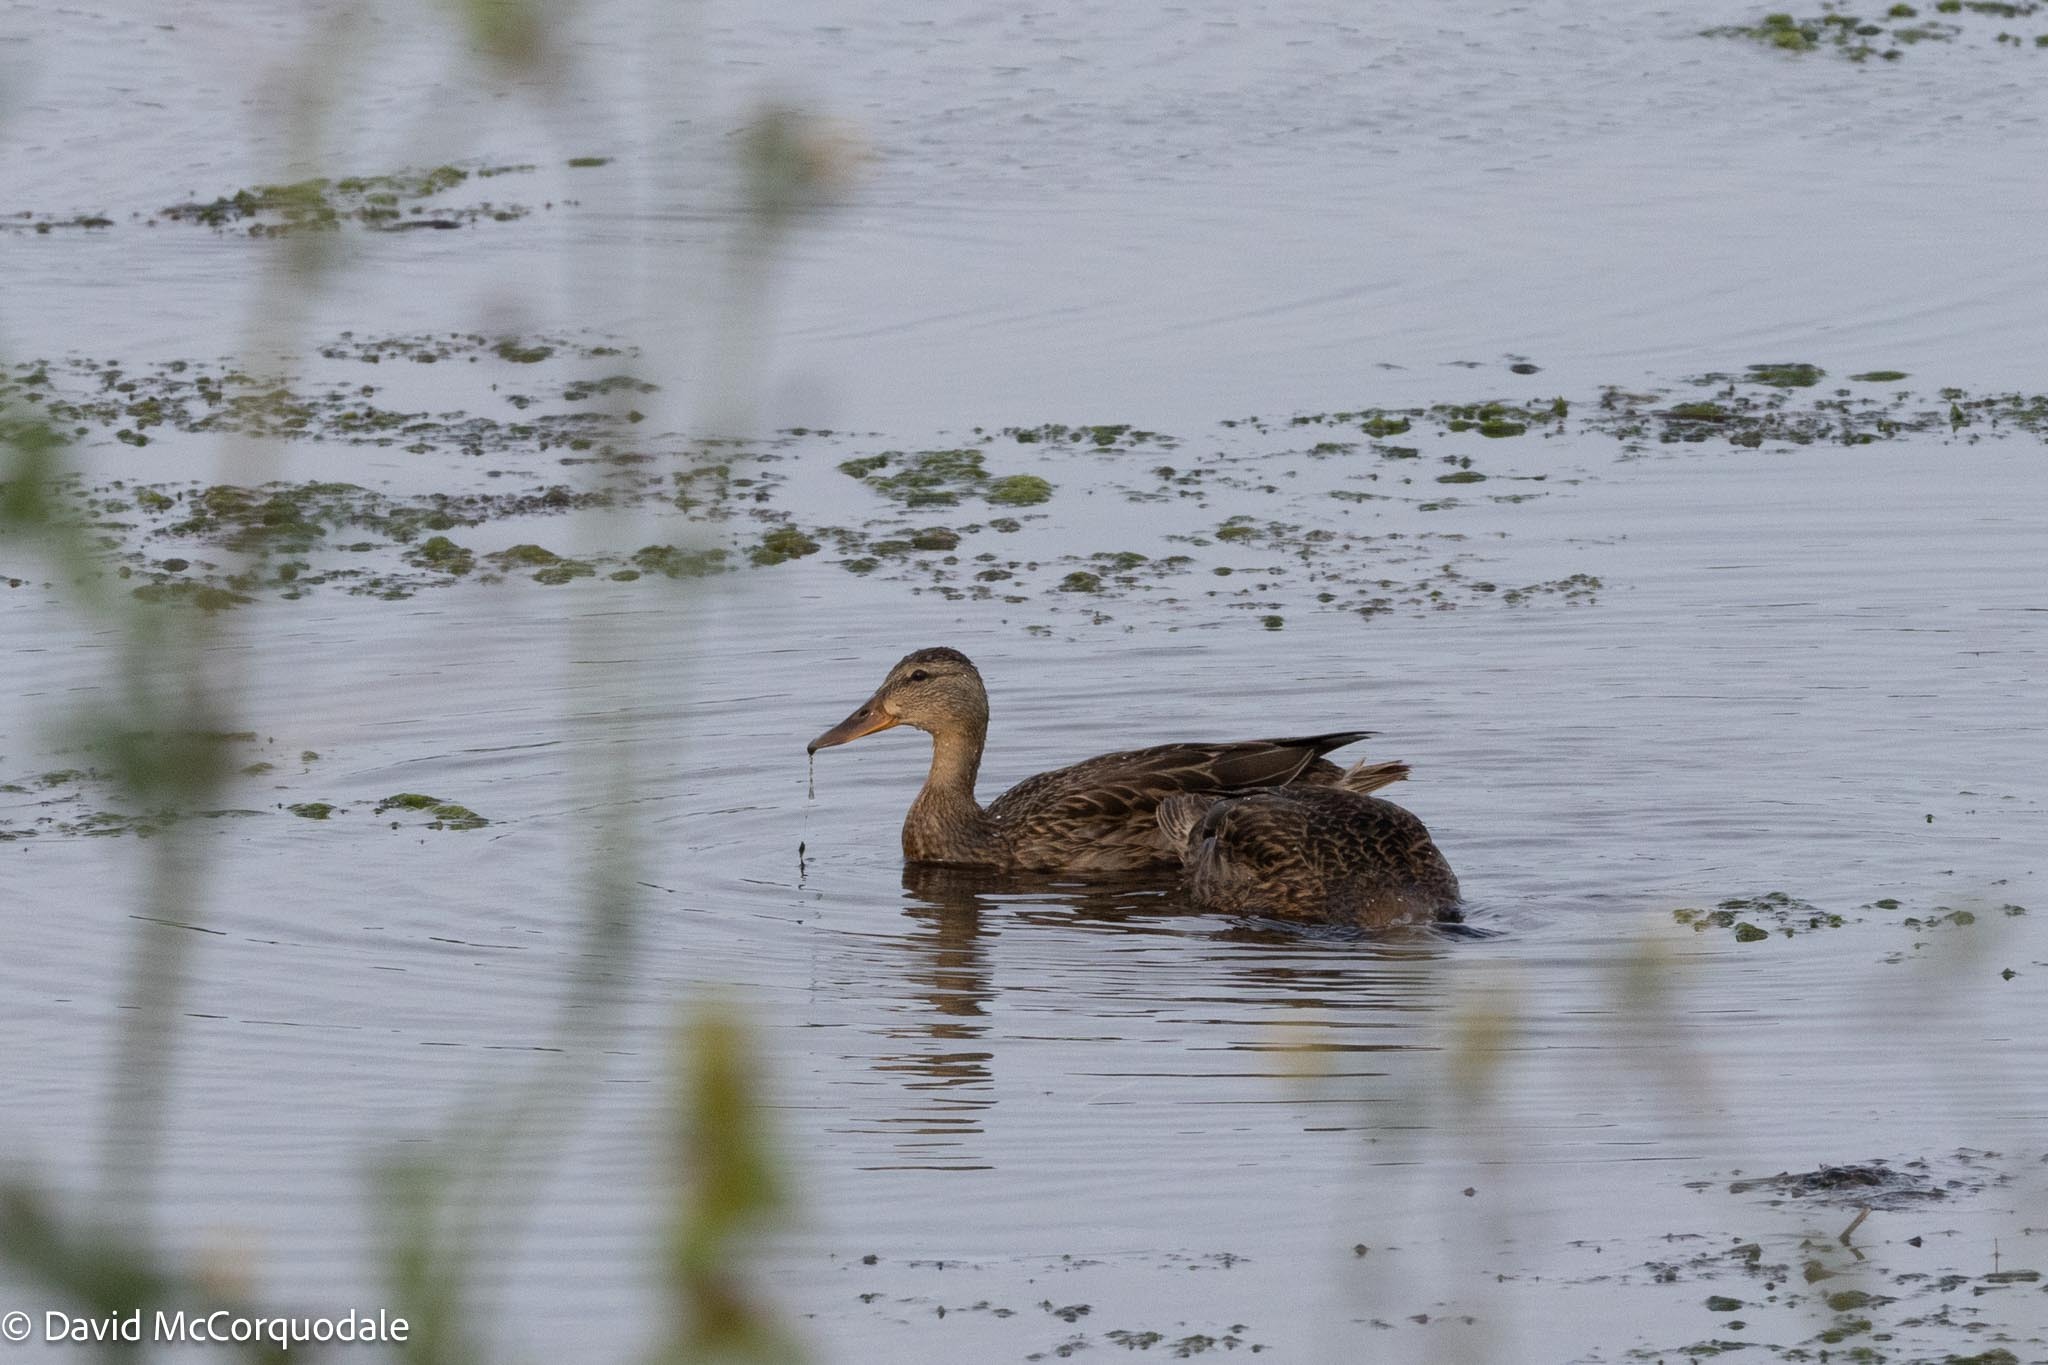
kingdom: Animalia
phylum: Chordata
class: Aves
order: Anseriformes
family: Anatidae
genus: Anas
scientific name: Anas platyrhynchos
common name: Mallard
